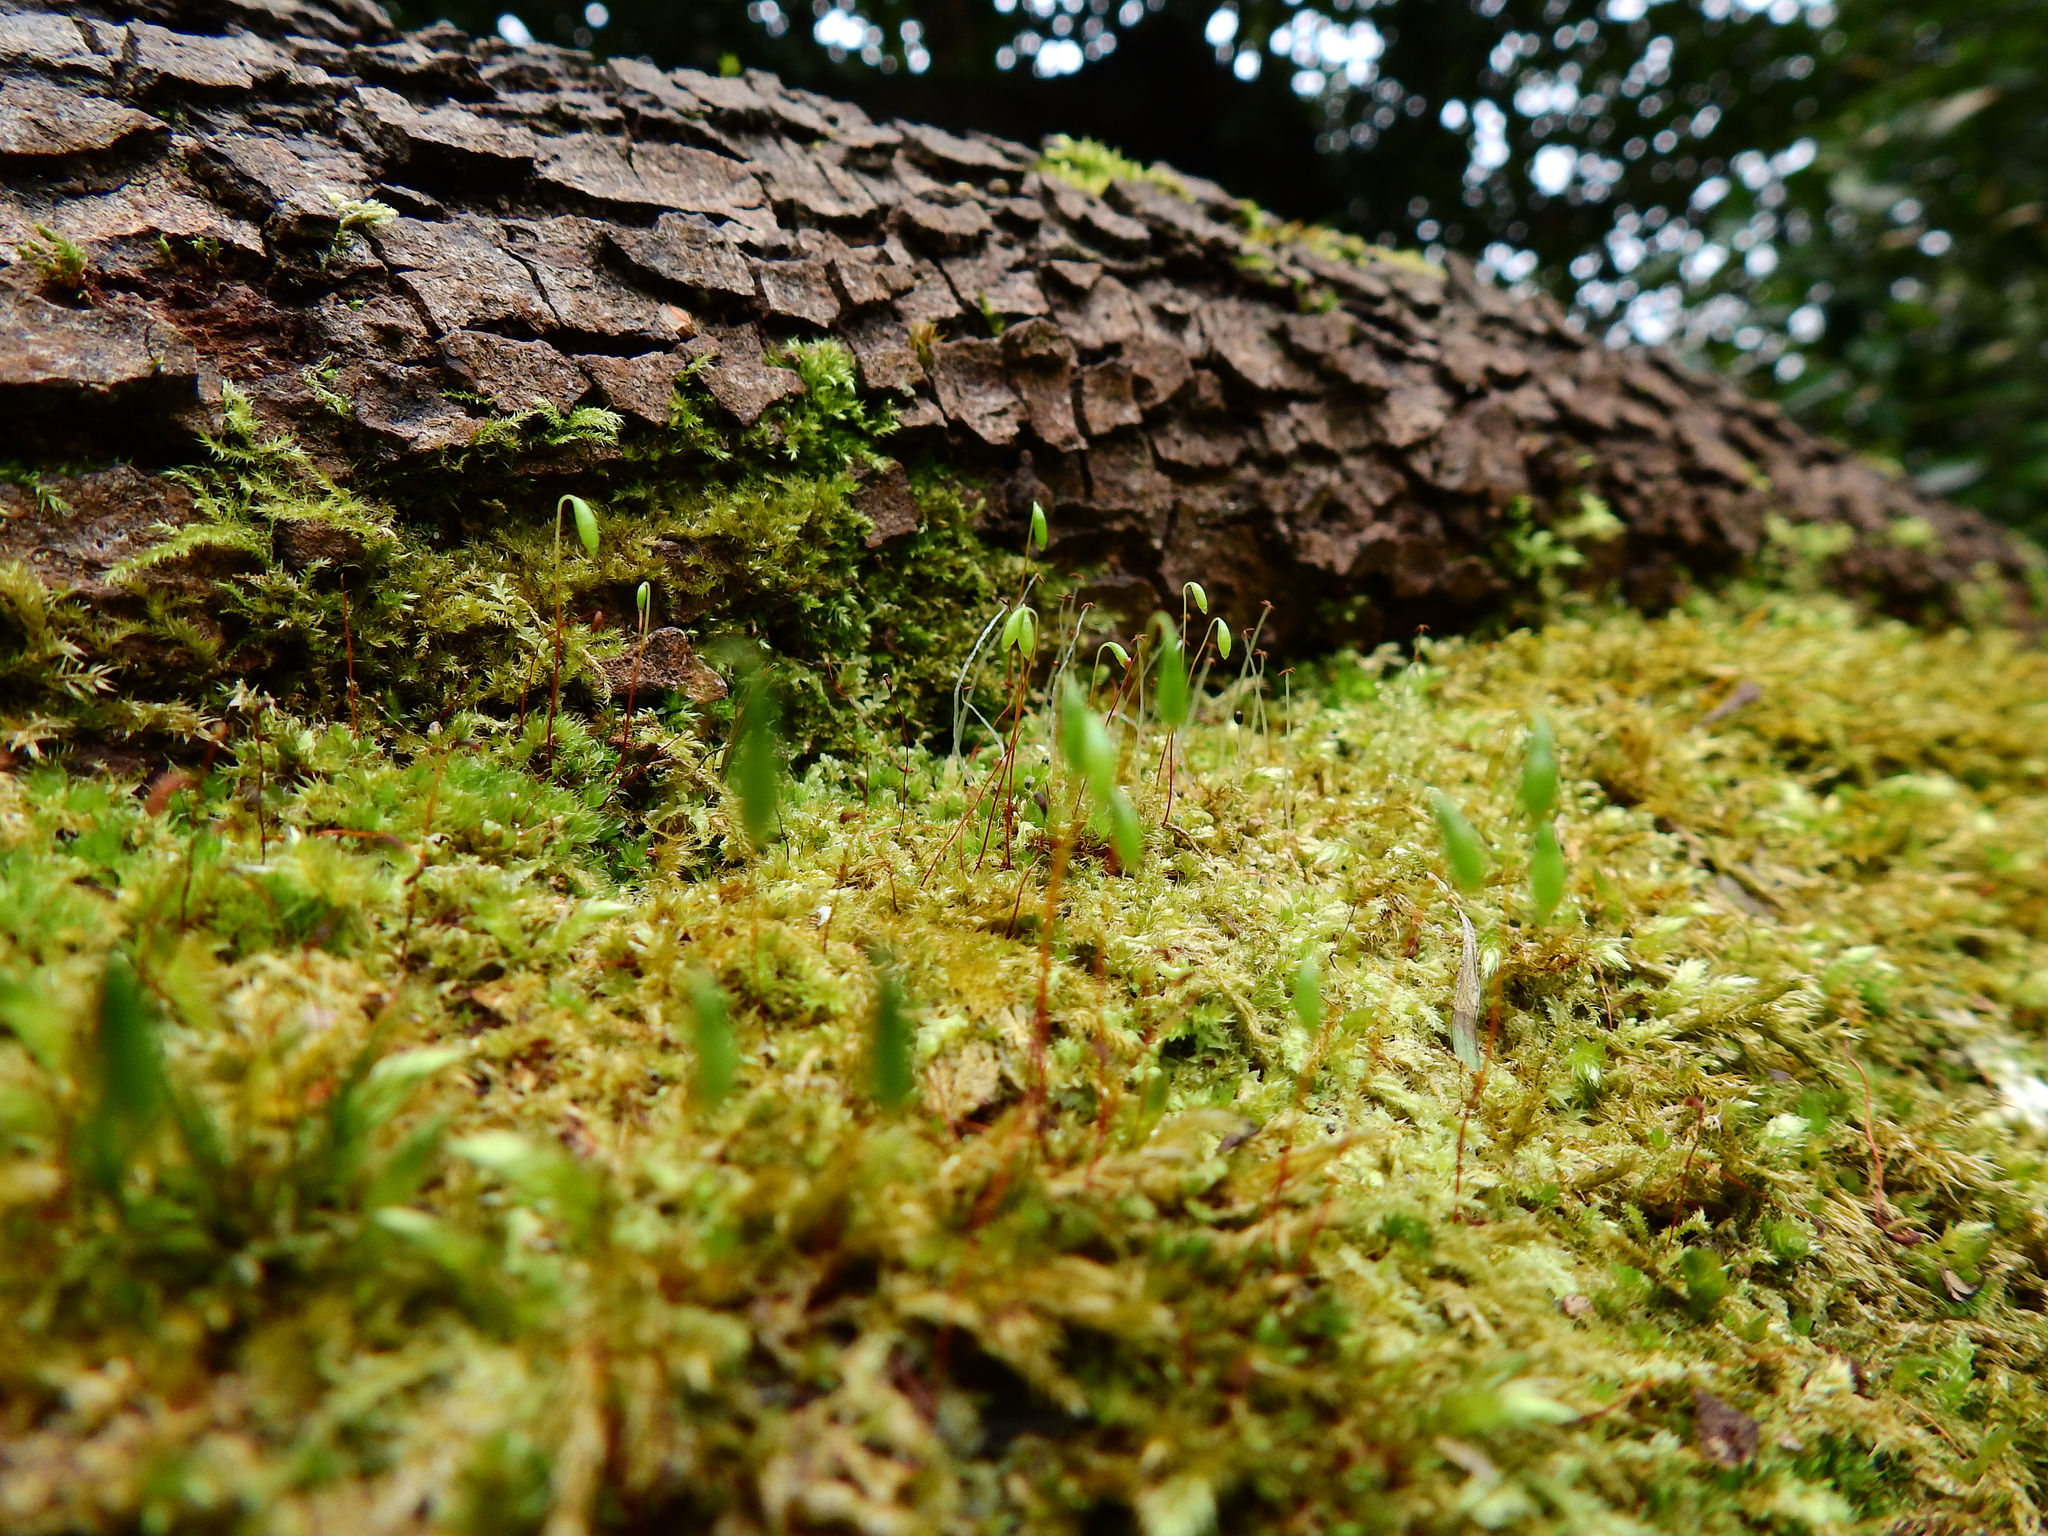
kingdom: Plantae
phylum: Bryophyta
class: Bryopsida
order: Bryales
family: Bryaceae
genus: Rosulabryum
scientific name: Rosulabryum capillare
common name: Capillary thread-moss
